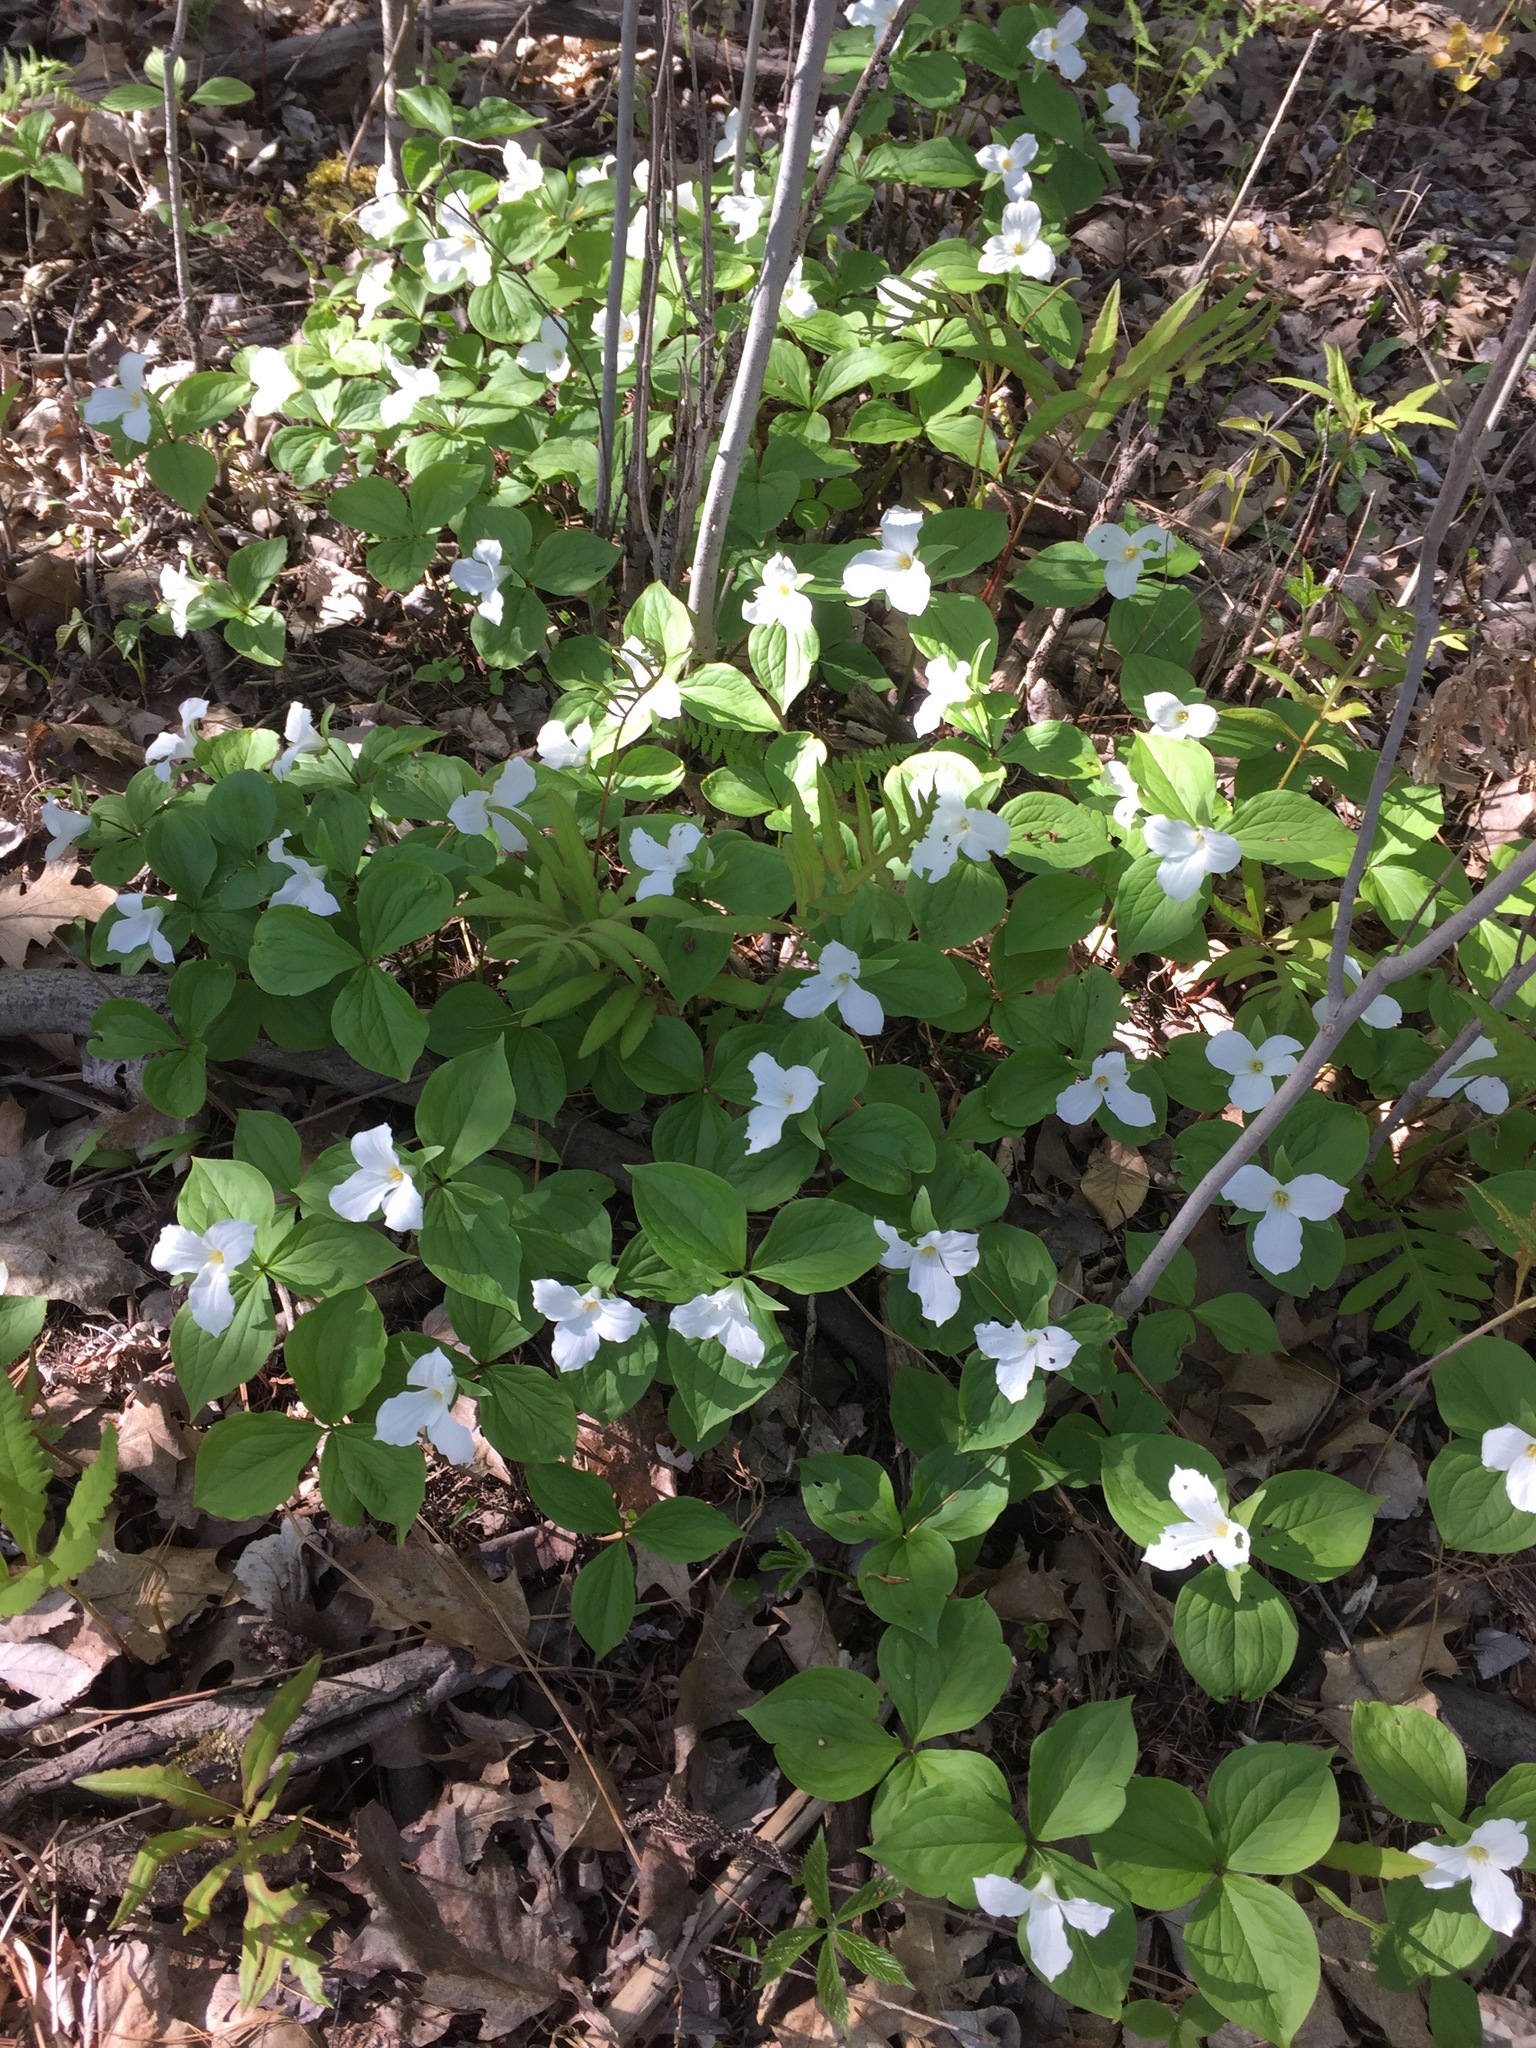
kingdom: Plantae
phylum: Tracheophyta
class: Liliopsida
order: Liliales
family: Melanthiaceae
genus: Trillium
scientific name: Trillium grandiflorum
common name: Great white trillium
